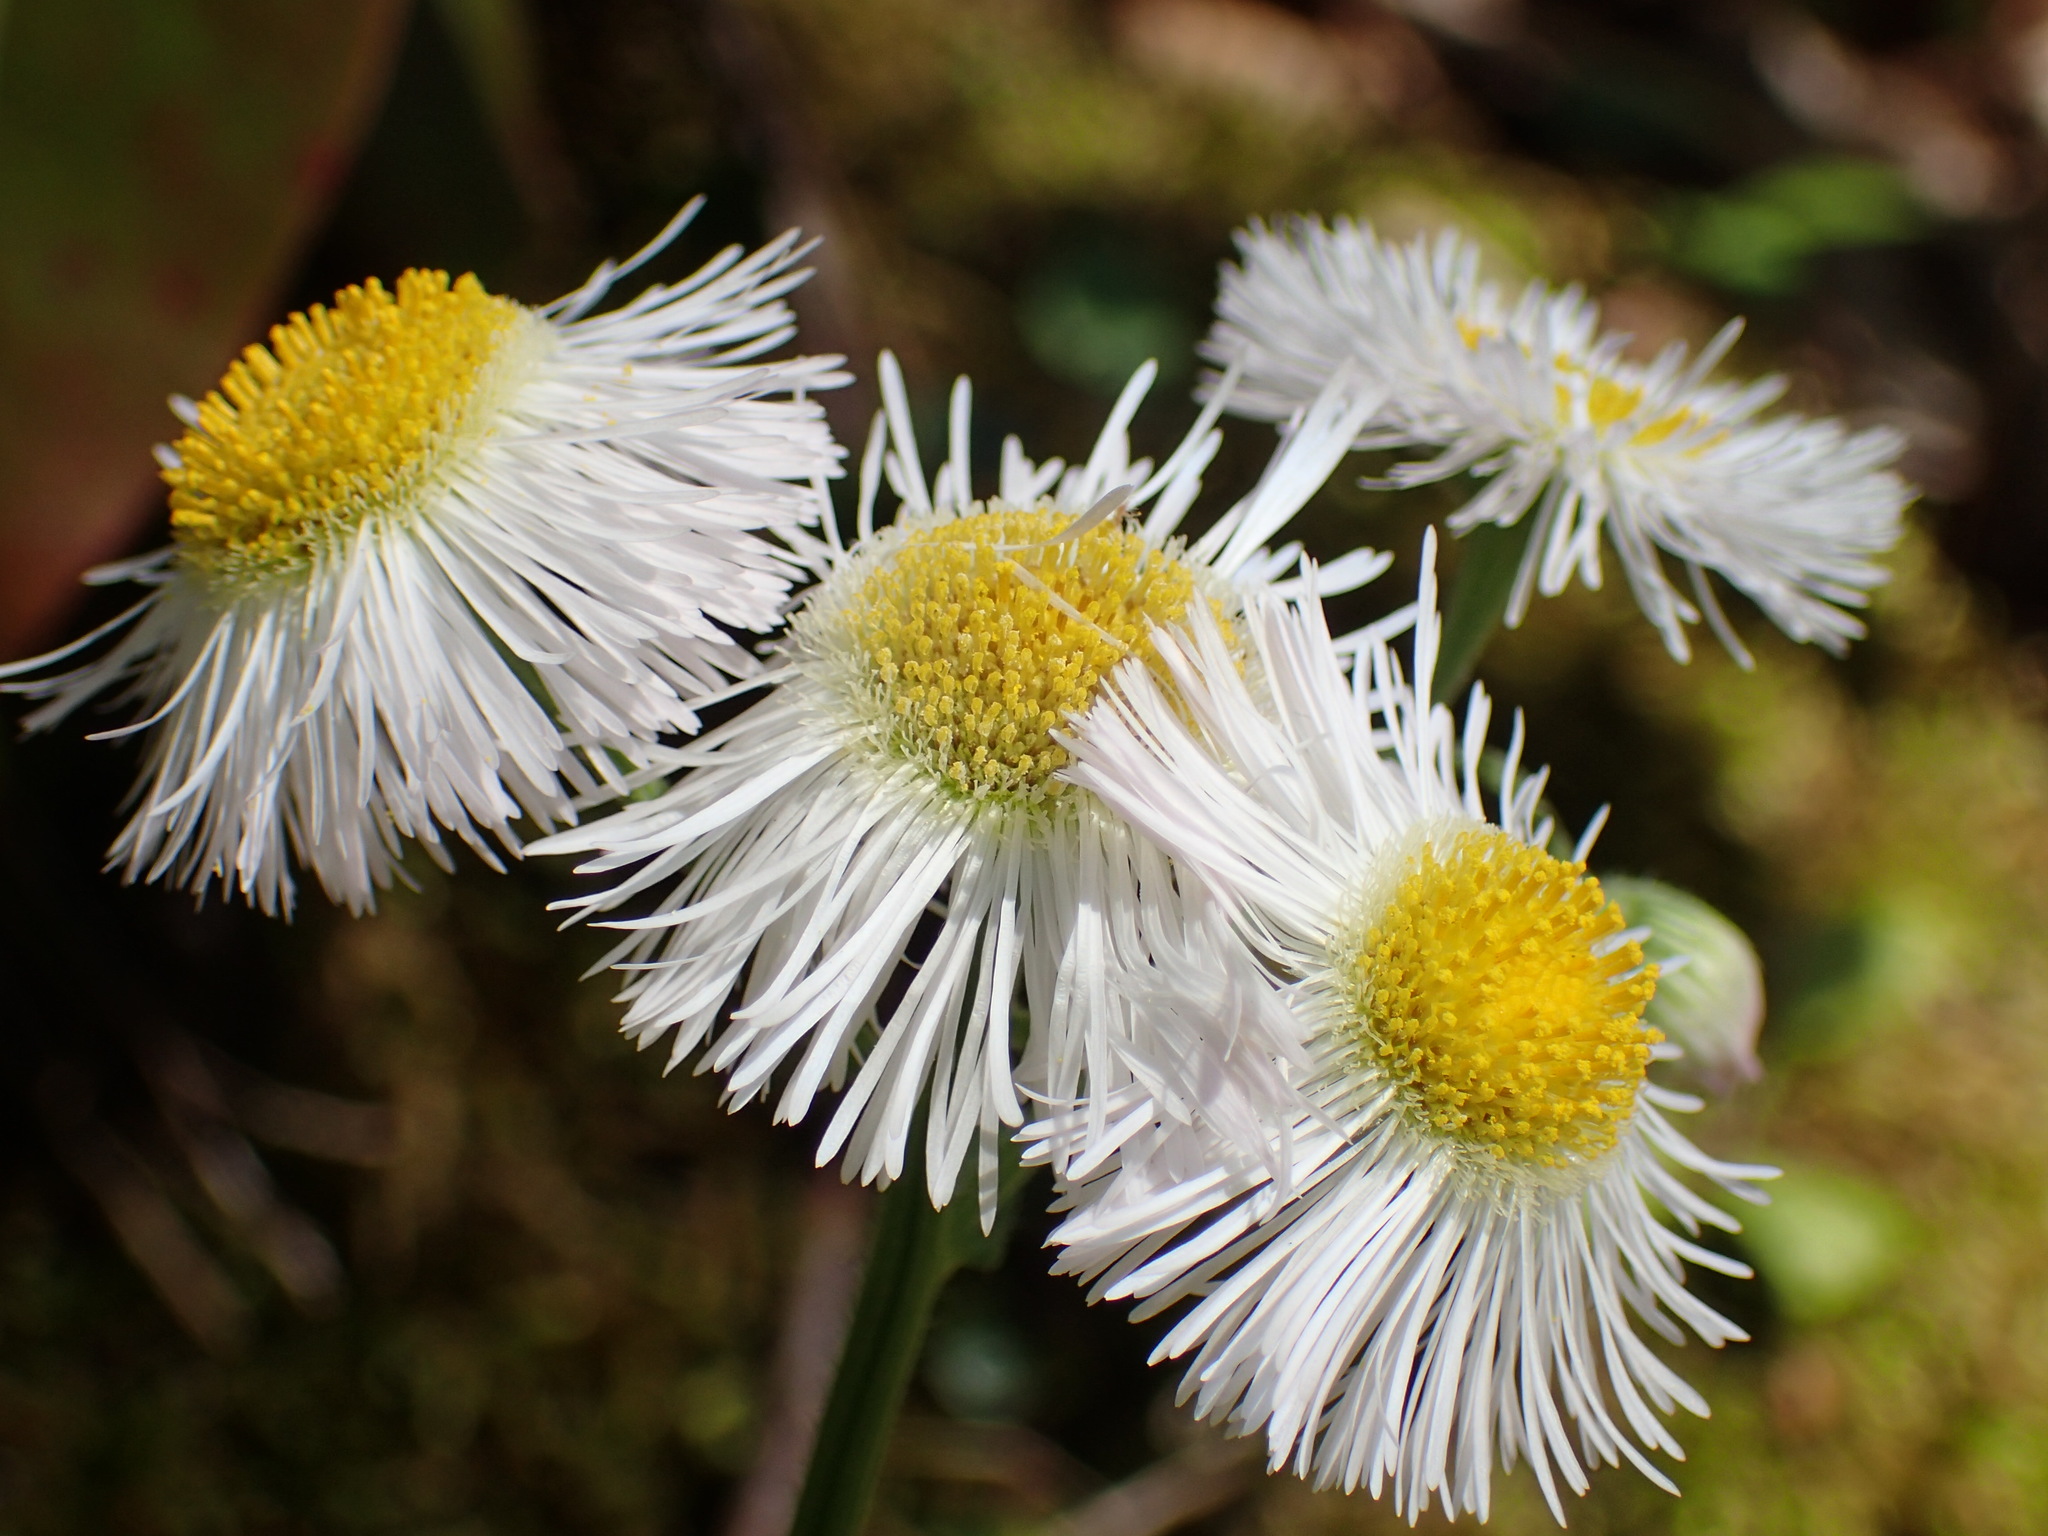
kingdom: Plantae
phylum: Tracheophyta
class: Magnoliopsida
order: Asterales
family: Asteraceae
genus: Erigeron
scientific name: Erigeron philadelphicus
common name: Robin's-plantain
